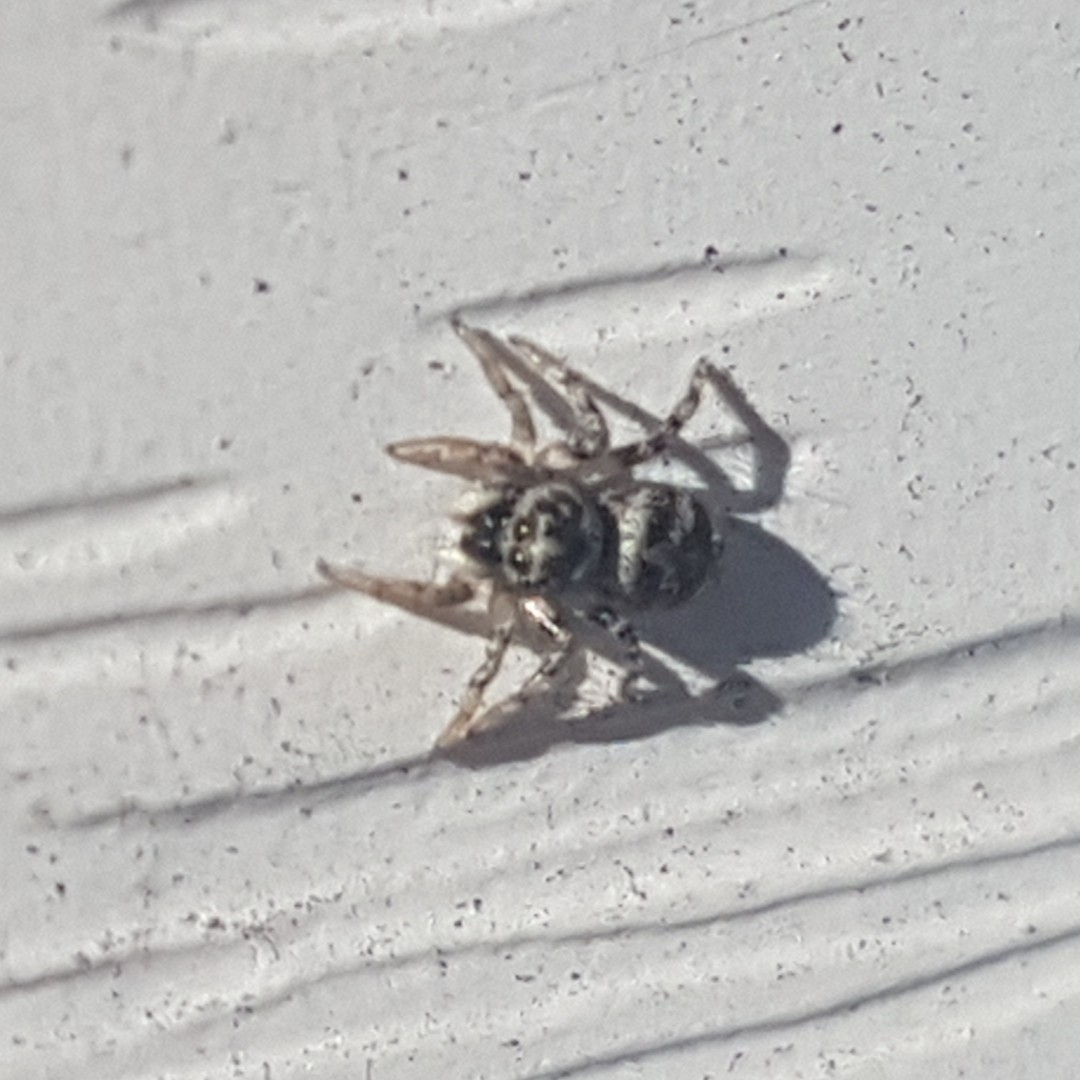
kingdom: Animalia
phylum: Arthropoda
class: Arachnida
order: Araneae
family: Salticidae
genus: Salticus
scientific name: Salticus scenicus
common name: Zebra jumper
